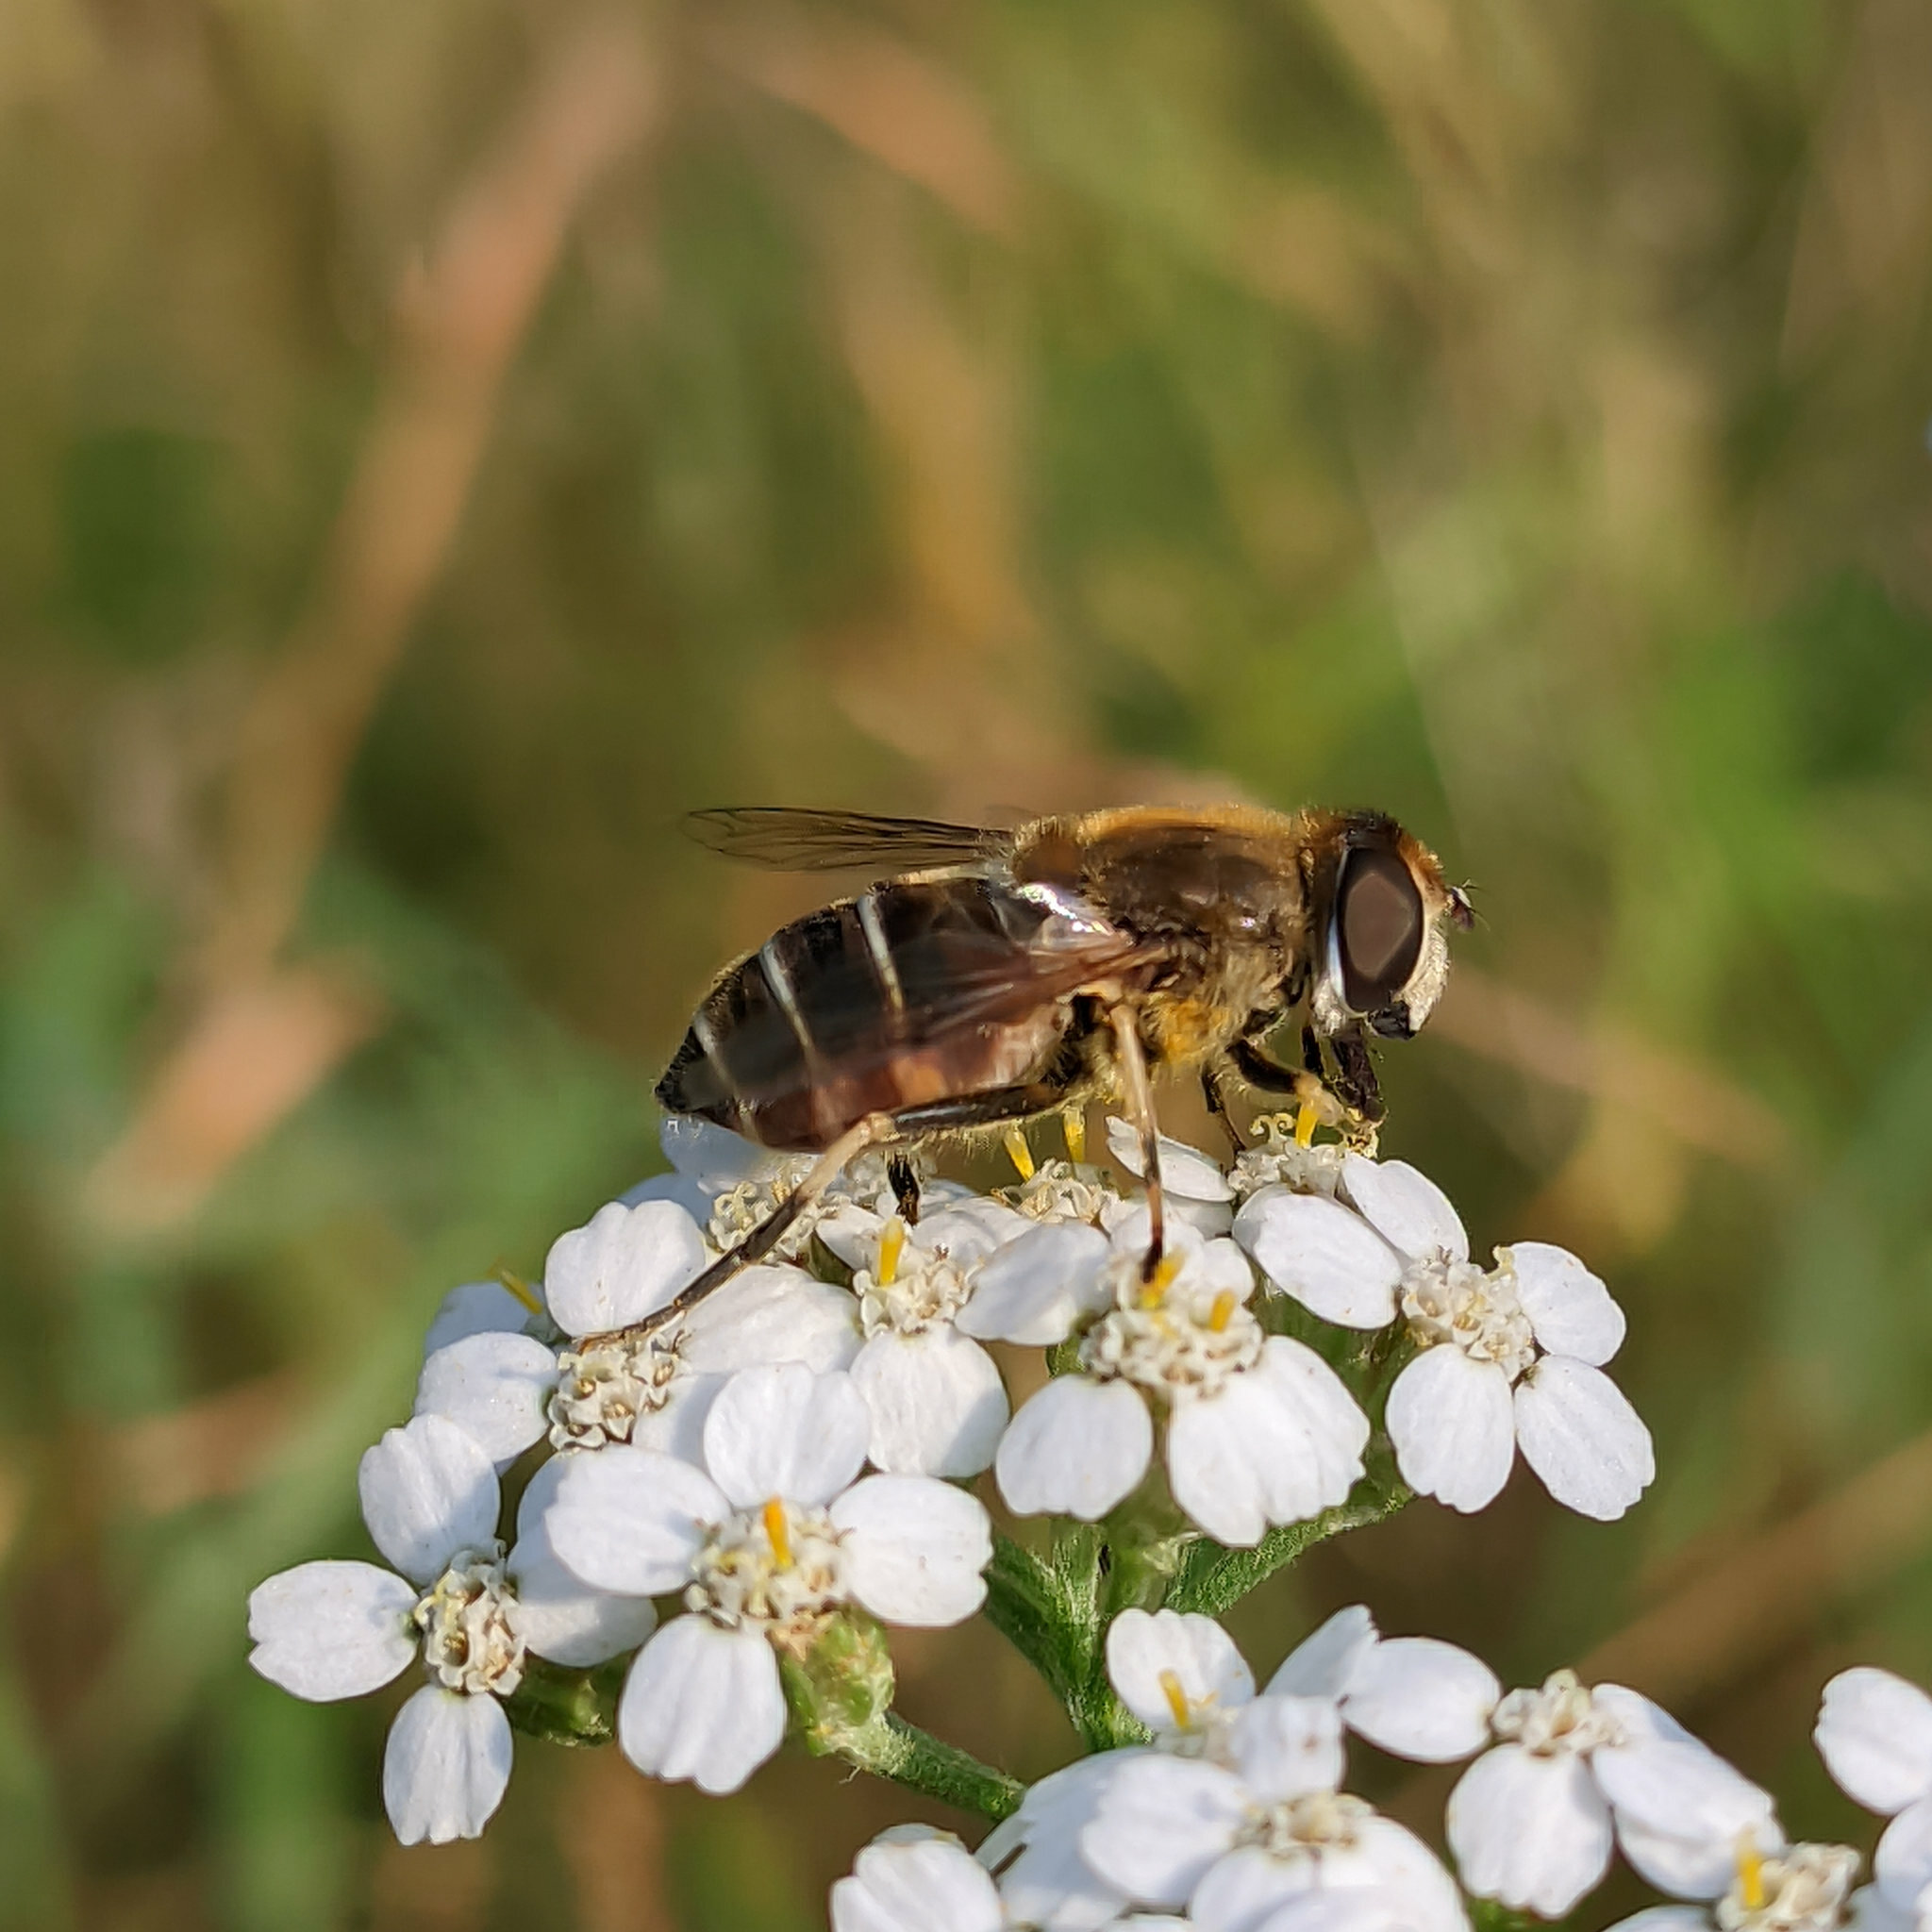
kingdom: Animalia
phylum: Arthropoda
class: Insecta
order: Diptera
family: Syrphidae
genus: Eristalis
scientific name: Eristalis nemorum
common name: Orange-spined drone fly
